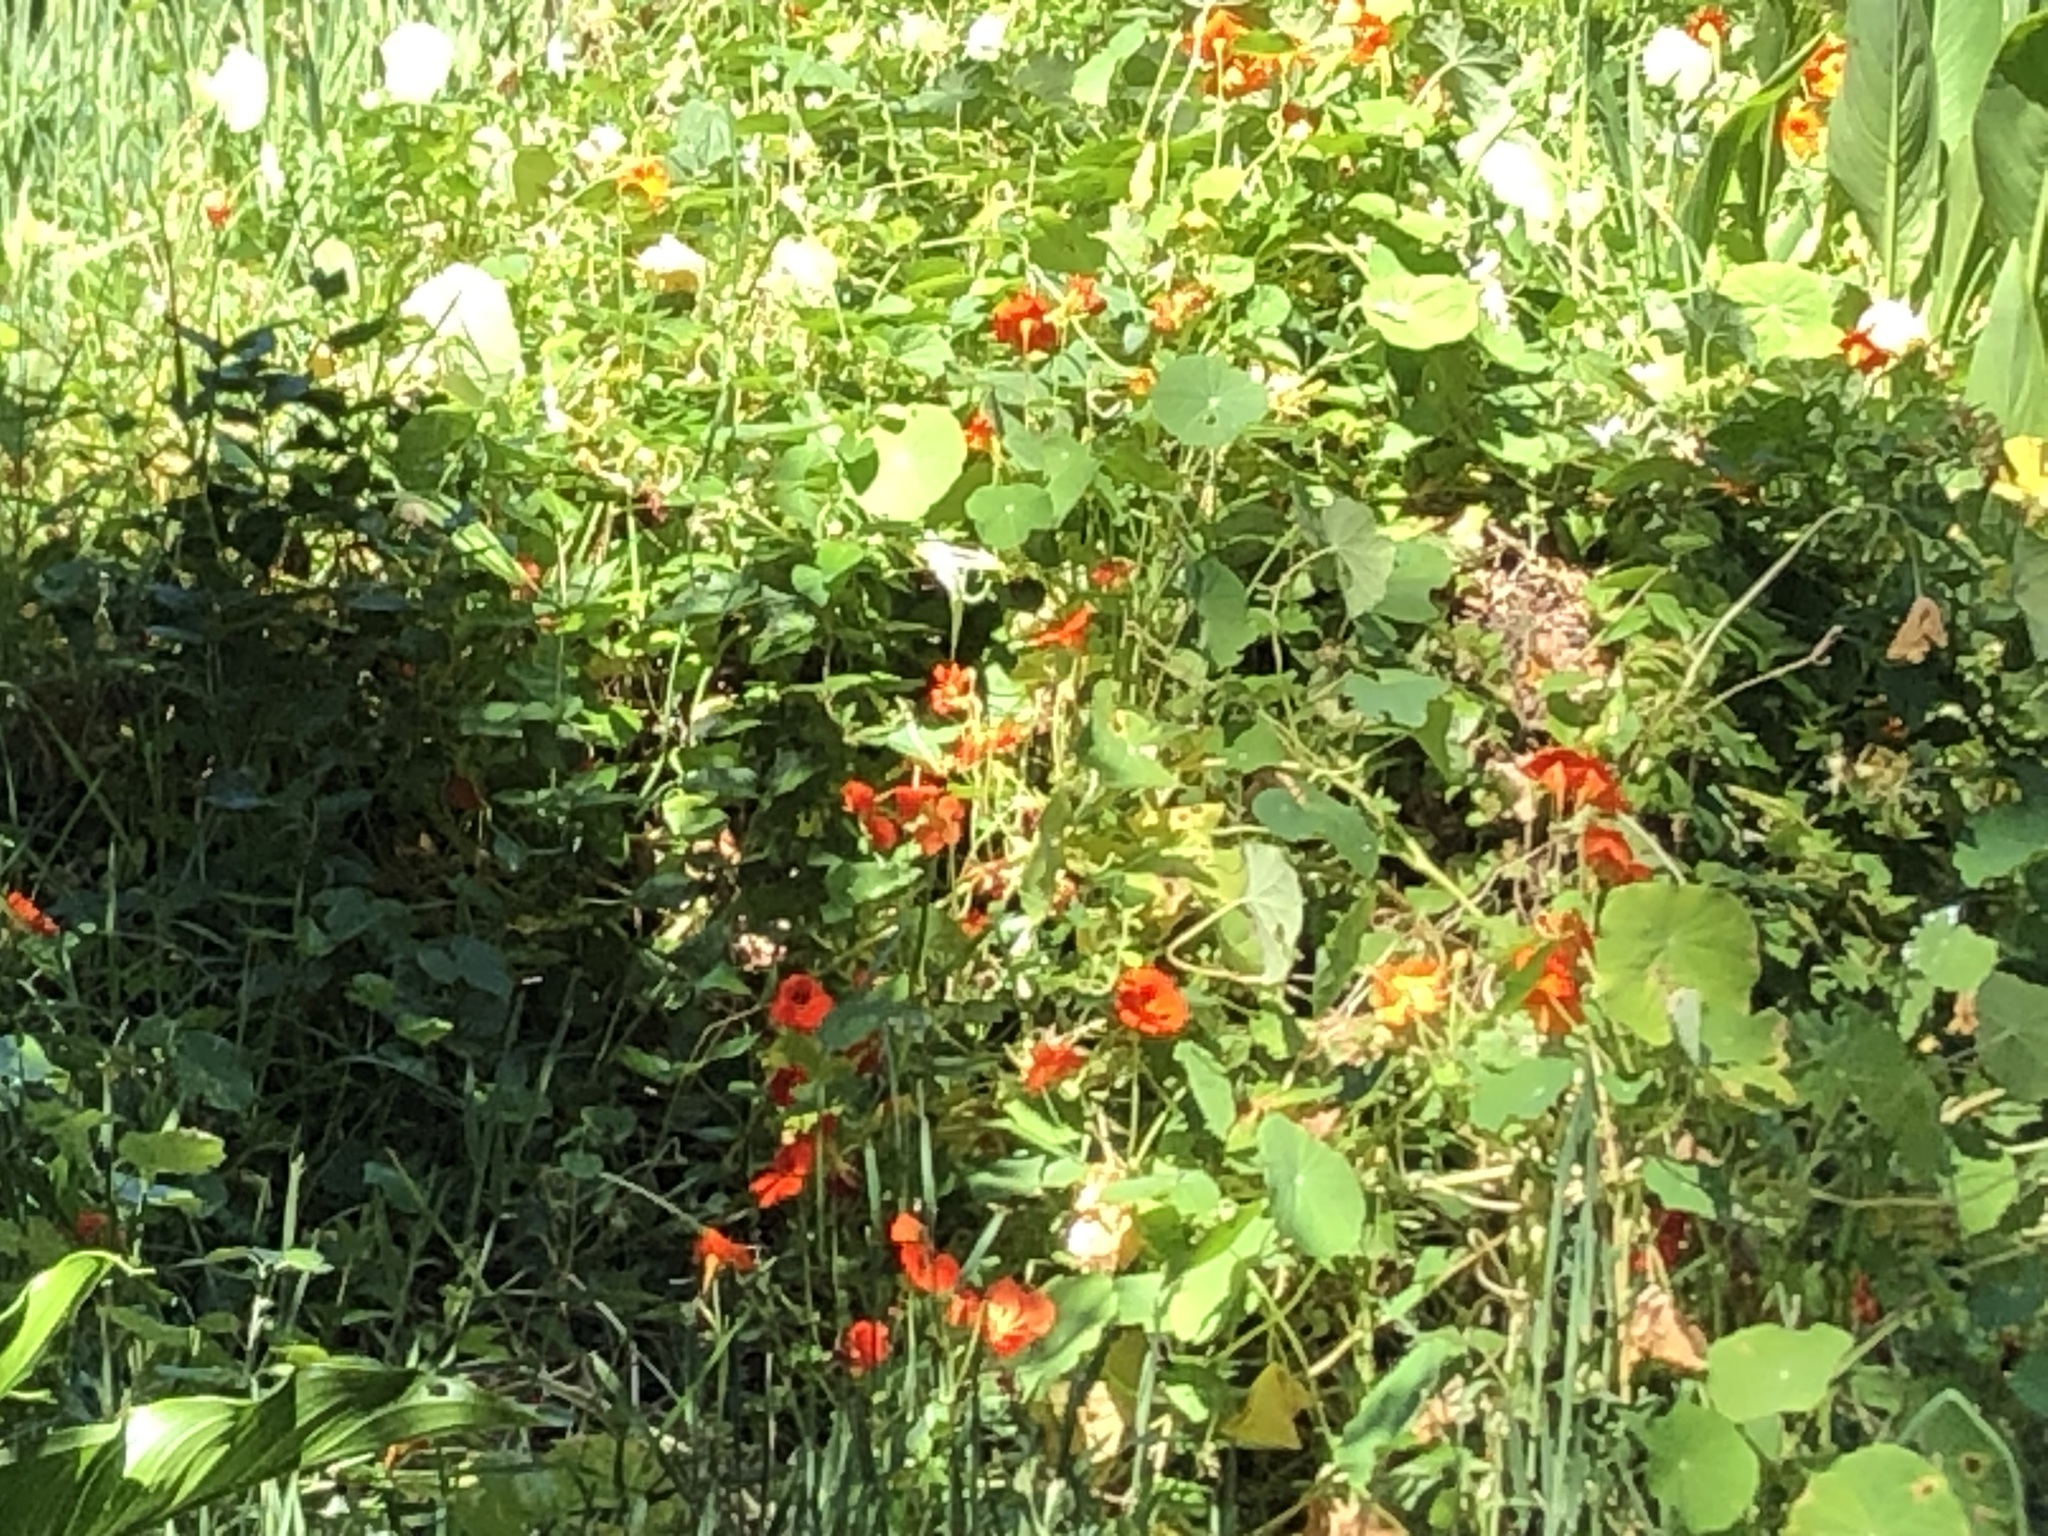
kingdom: Plantae
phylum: Tracheophyta
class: Magnoliopsida
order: Brassicales
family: Tropaeolaceae
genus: Tropaeolum
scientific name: Tropaeolum majus
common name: Nasturtium
